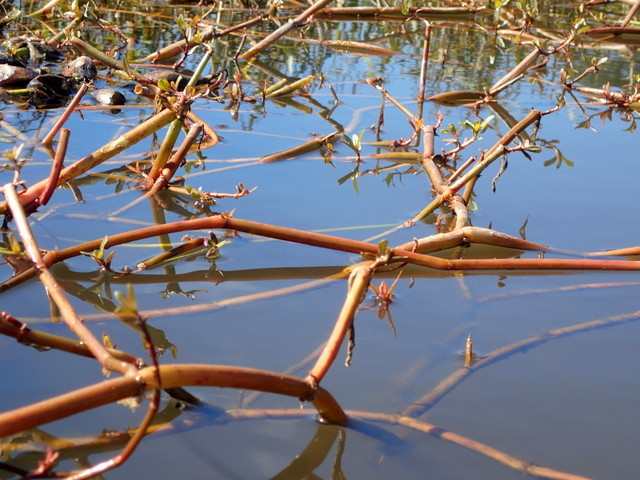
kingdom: Plantae
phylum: Tracheophyta
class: Magnoliopsida
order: Caryophyllales
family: Amaranthaceae
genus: Alternanthera
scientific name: Alternanthera philoxeroides
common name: Alligatorweed
